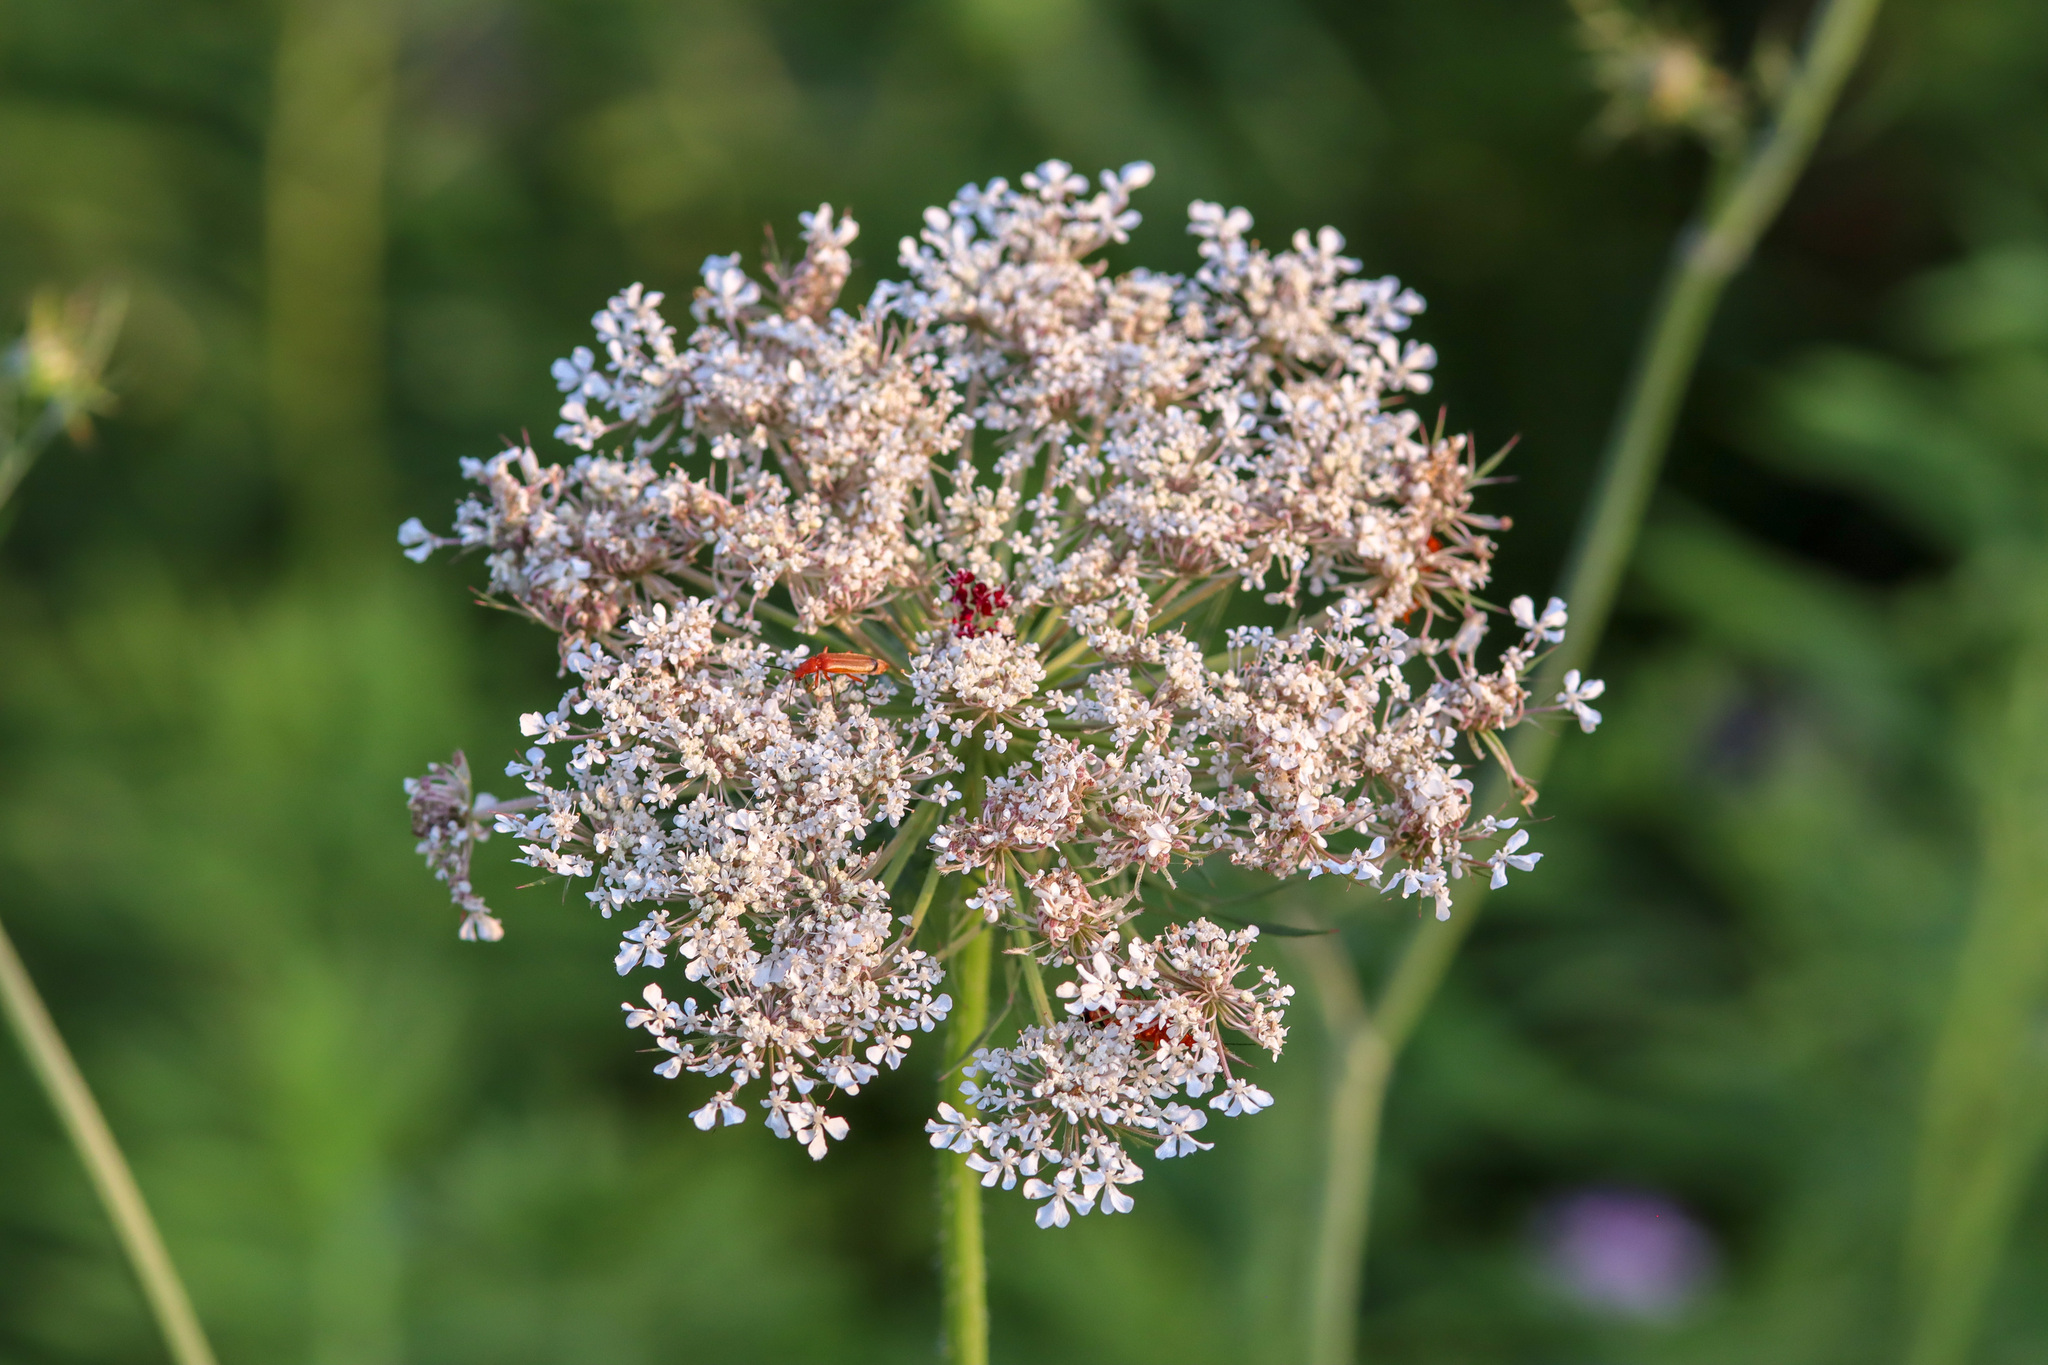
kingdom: Plantae
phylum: Tracheophyta
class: Magnoliopsida
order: Apiales
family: Apiaceae
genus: Daucus
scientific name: Daucus carota
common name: Wild carrot
